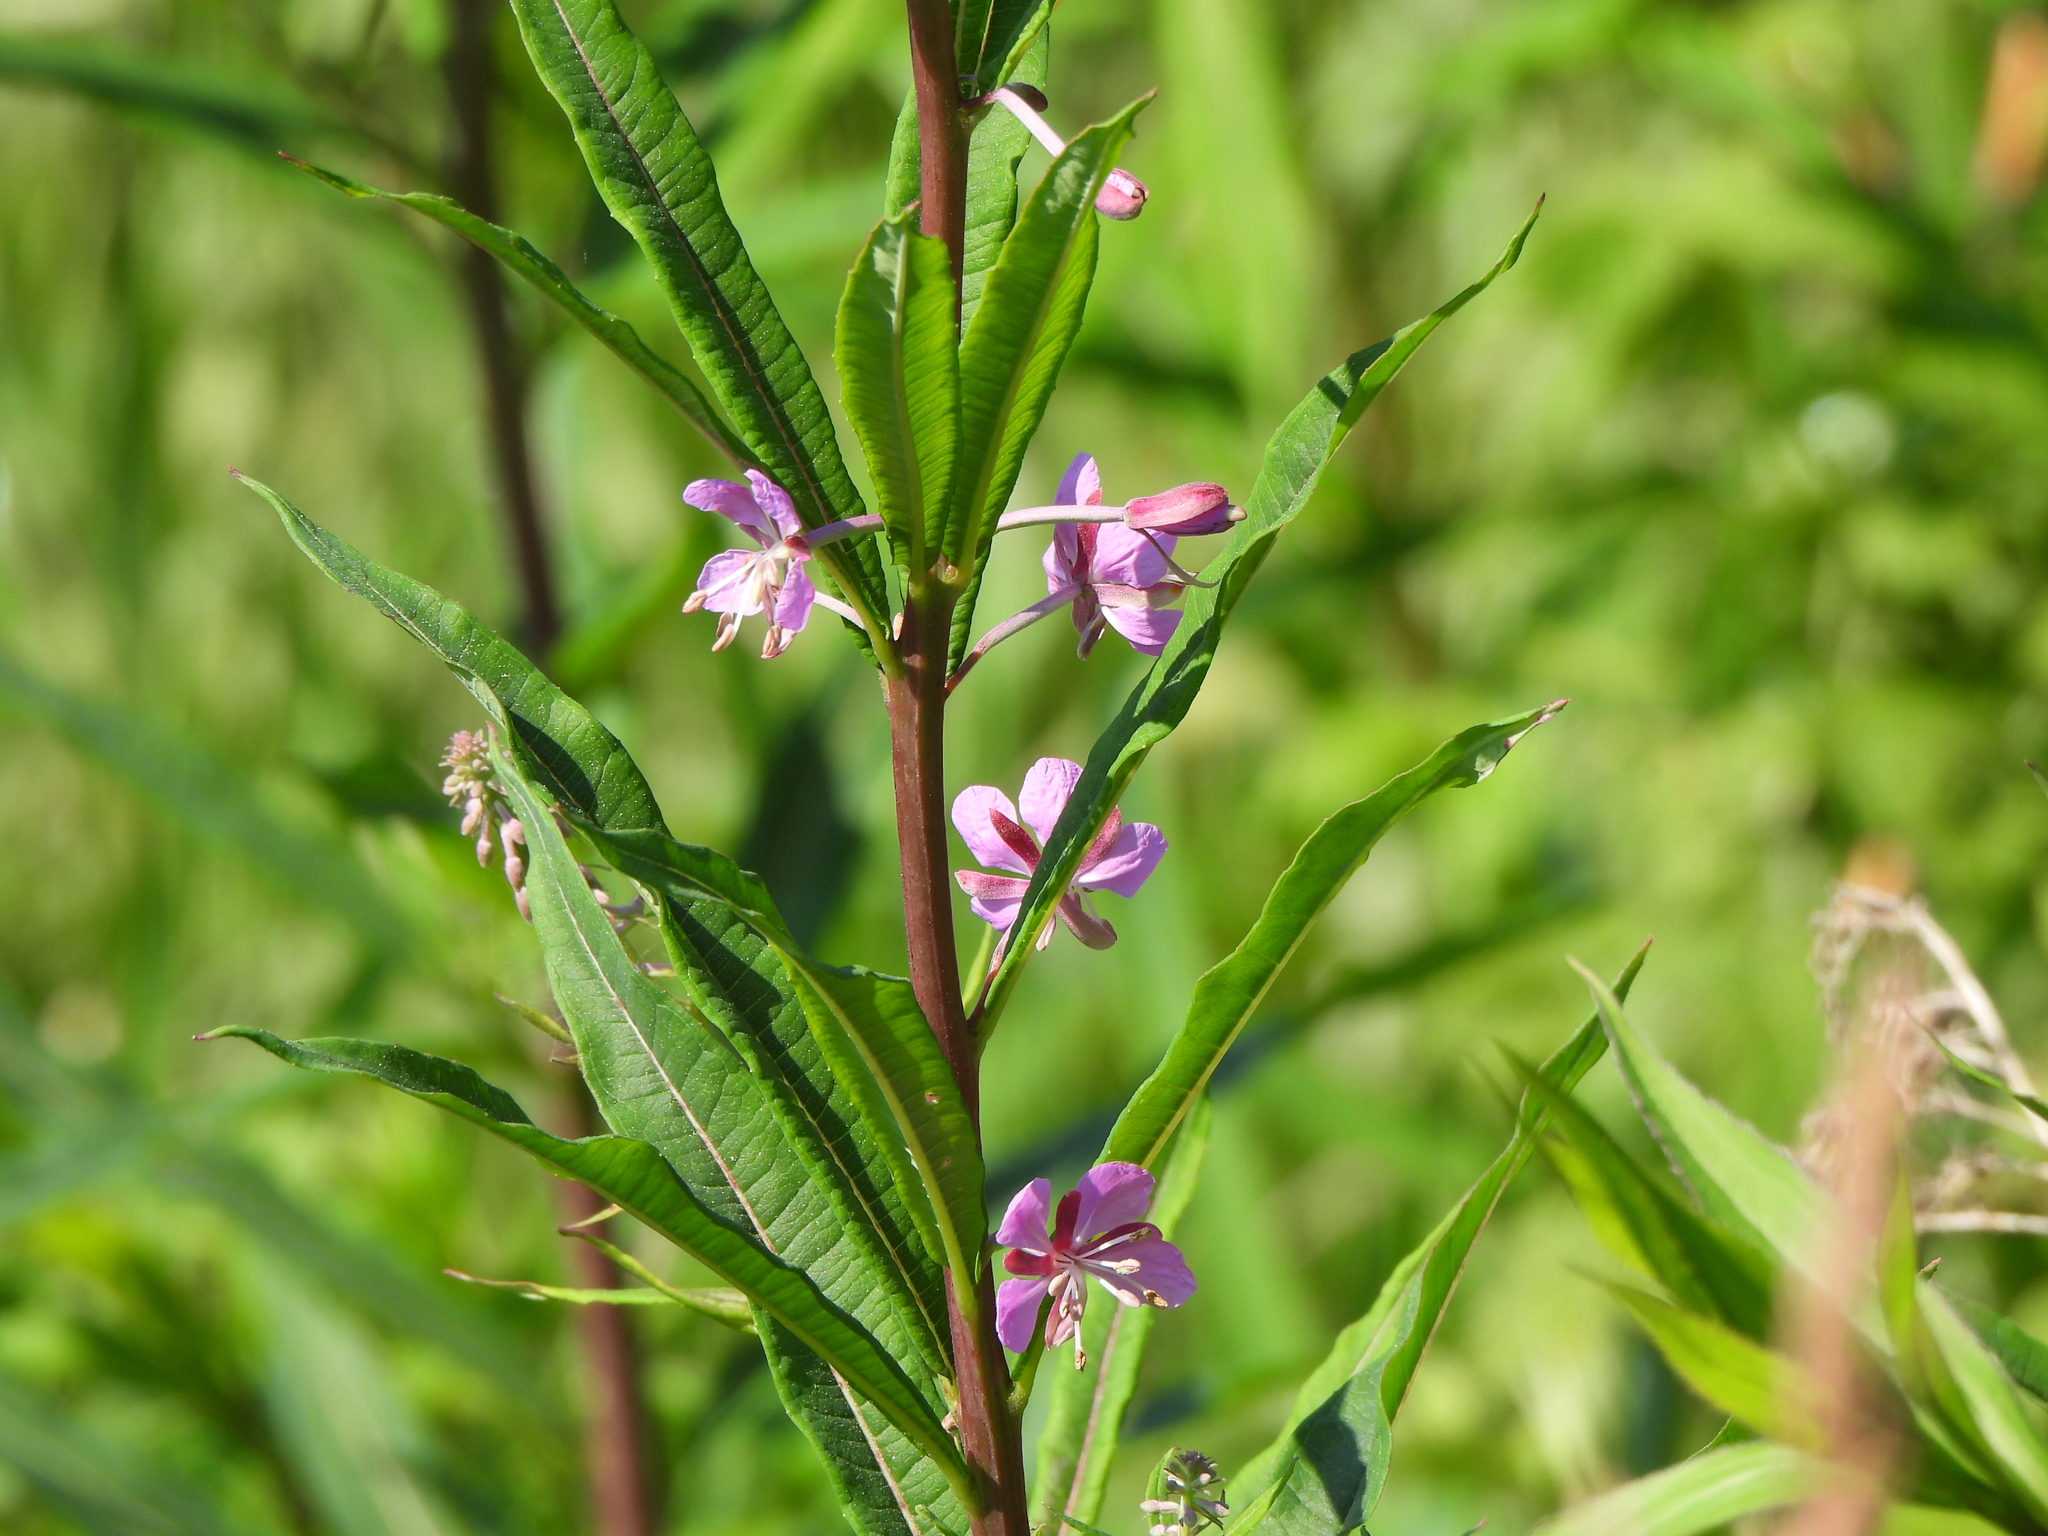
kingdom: Plantae
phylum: Tracheophyta
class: Magnoliopsida
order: Myrtales
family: Onagraceae
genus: Chamaenerion
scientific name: Chamaenerion angustifolium
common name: Fireweed
